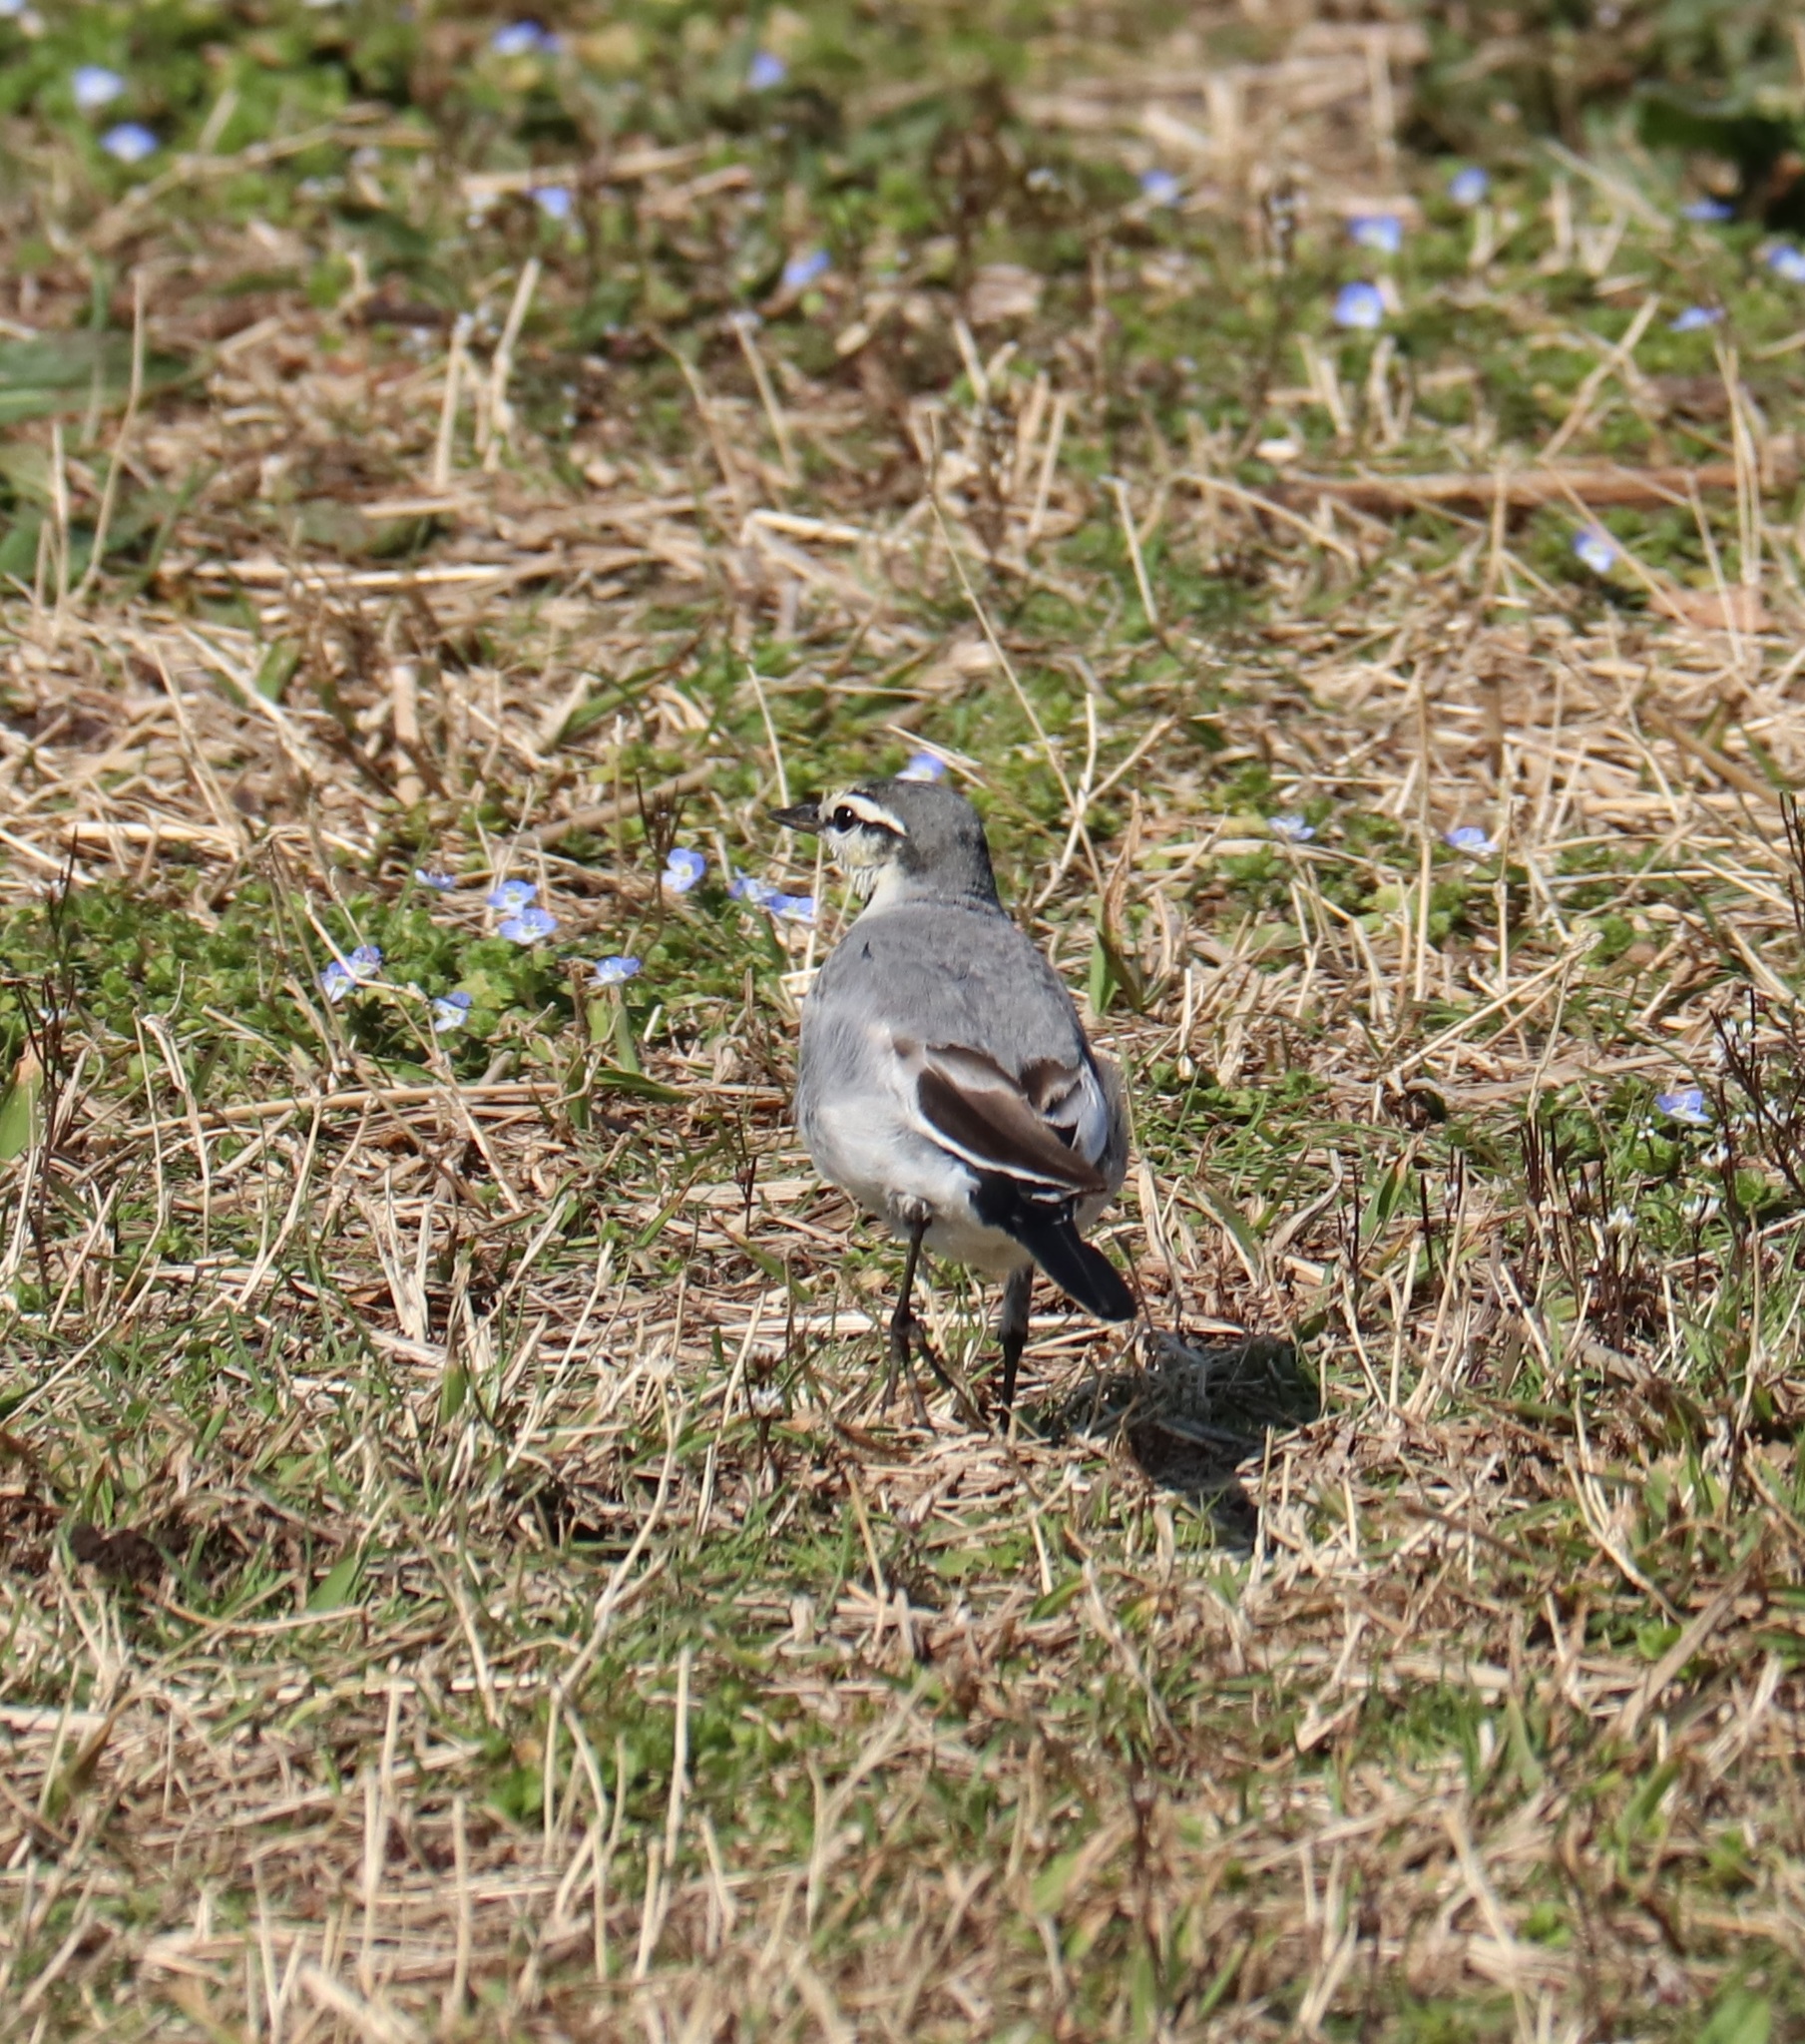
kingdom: Animalia
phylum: Chordata
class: Aves
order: Passeriformes
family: Motacillidae
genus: Motacilla
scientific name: Motacilla alba
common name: White wagtail
